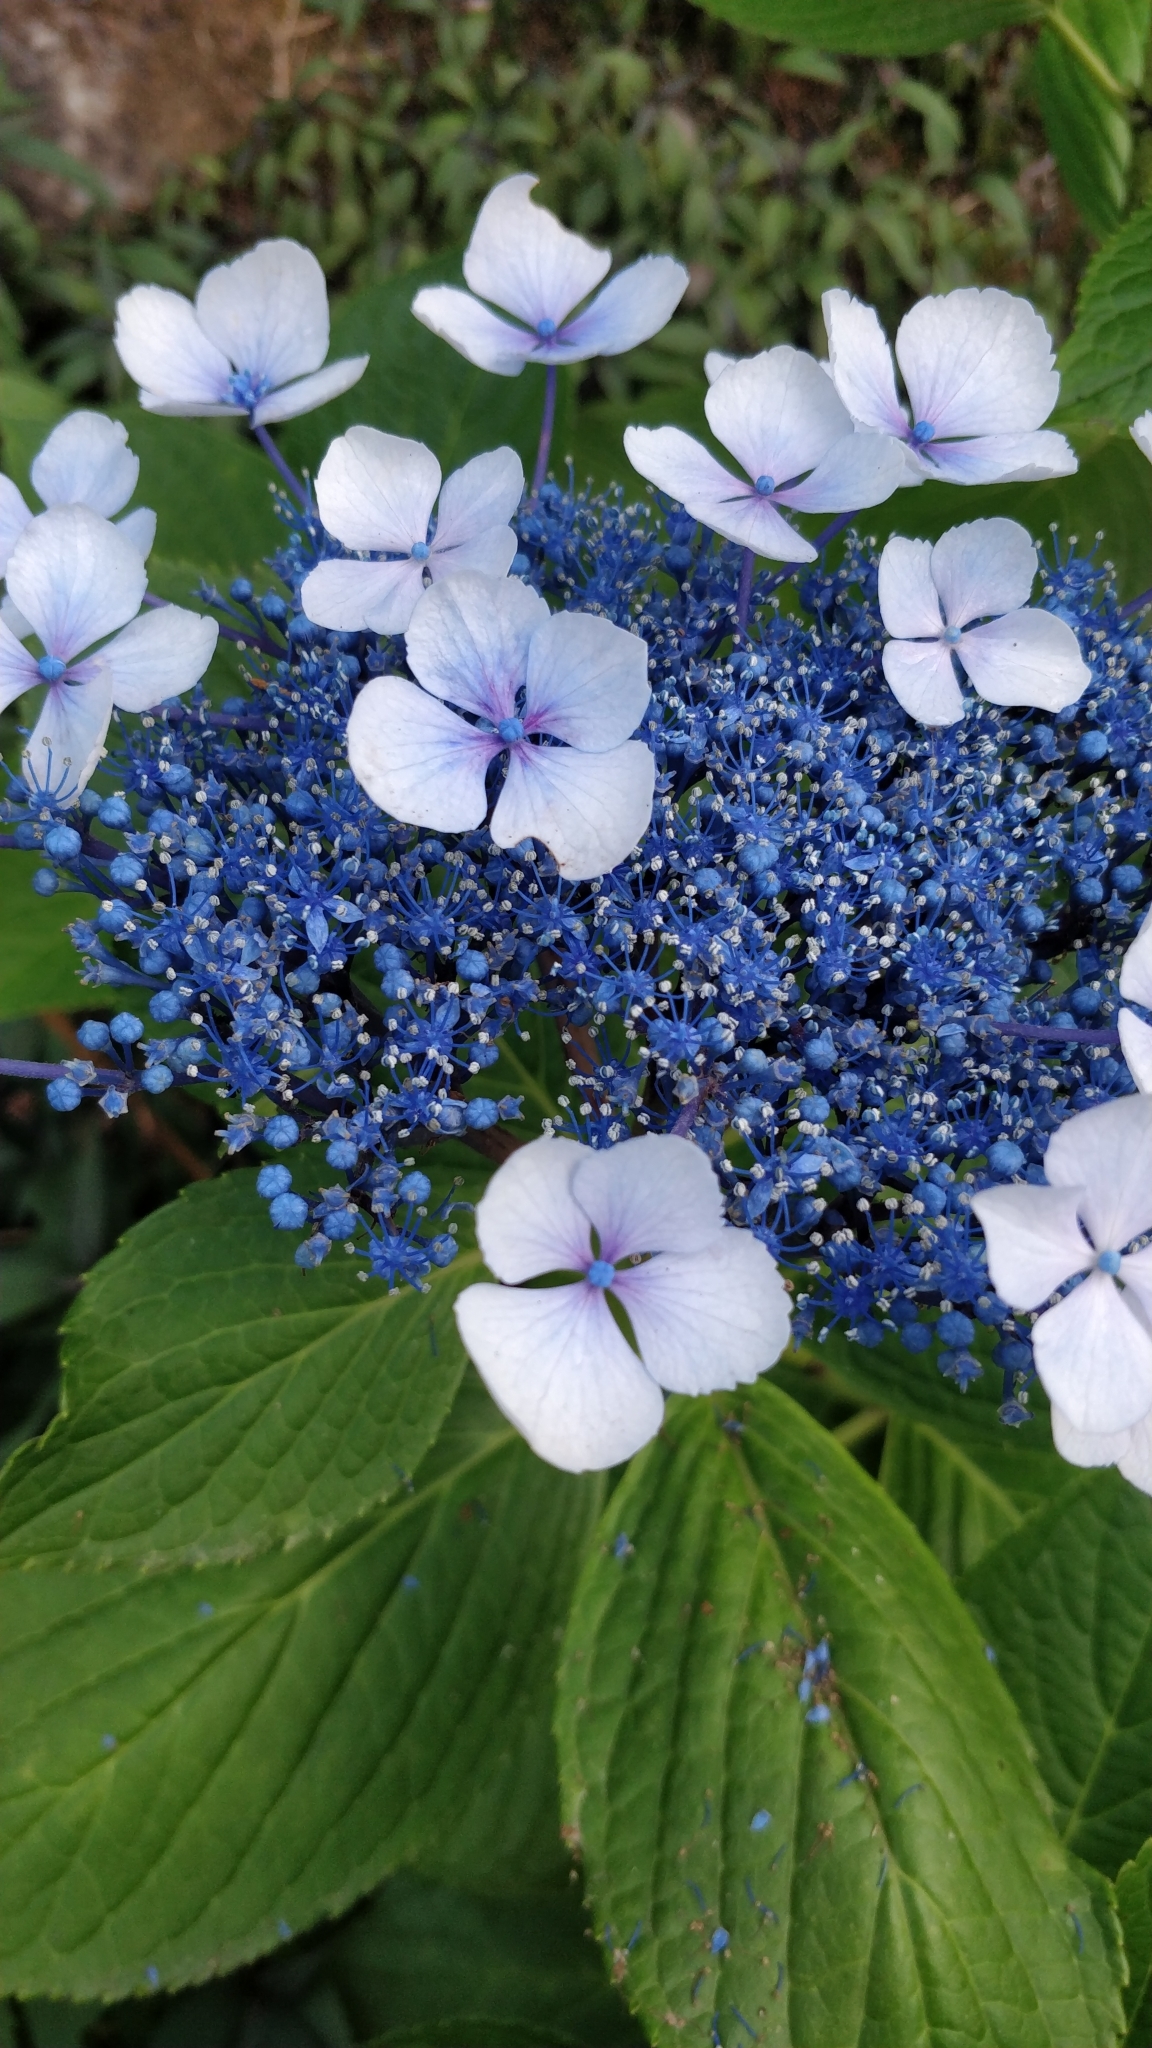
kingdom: Plantae
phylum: Tracheophyta
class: Magnoliopsida
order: Cornales
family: Hydrangeaceae
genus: Hydrangea
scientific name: Hydrangea macrophylla
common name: Hydrangea
